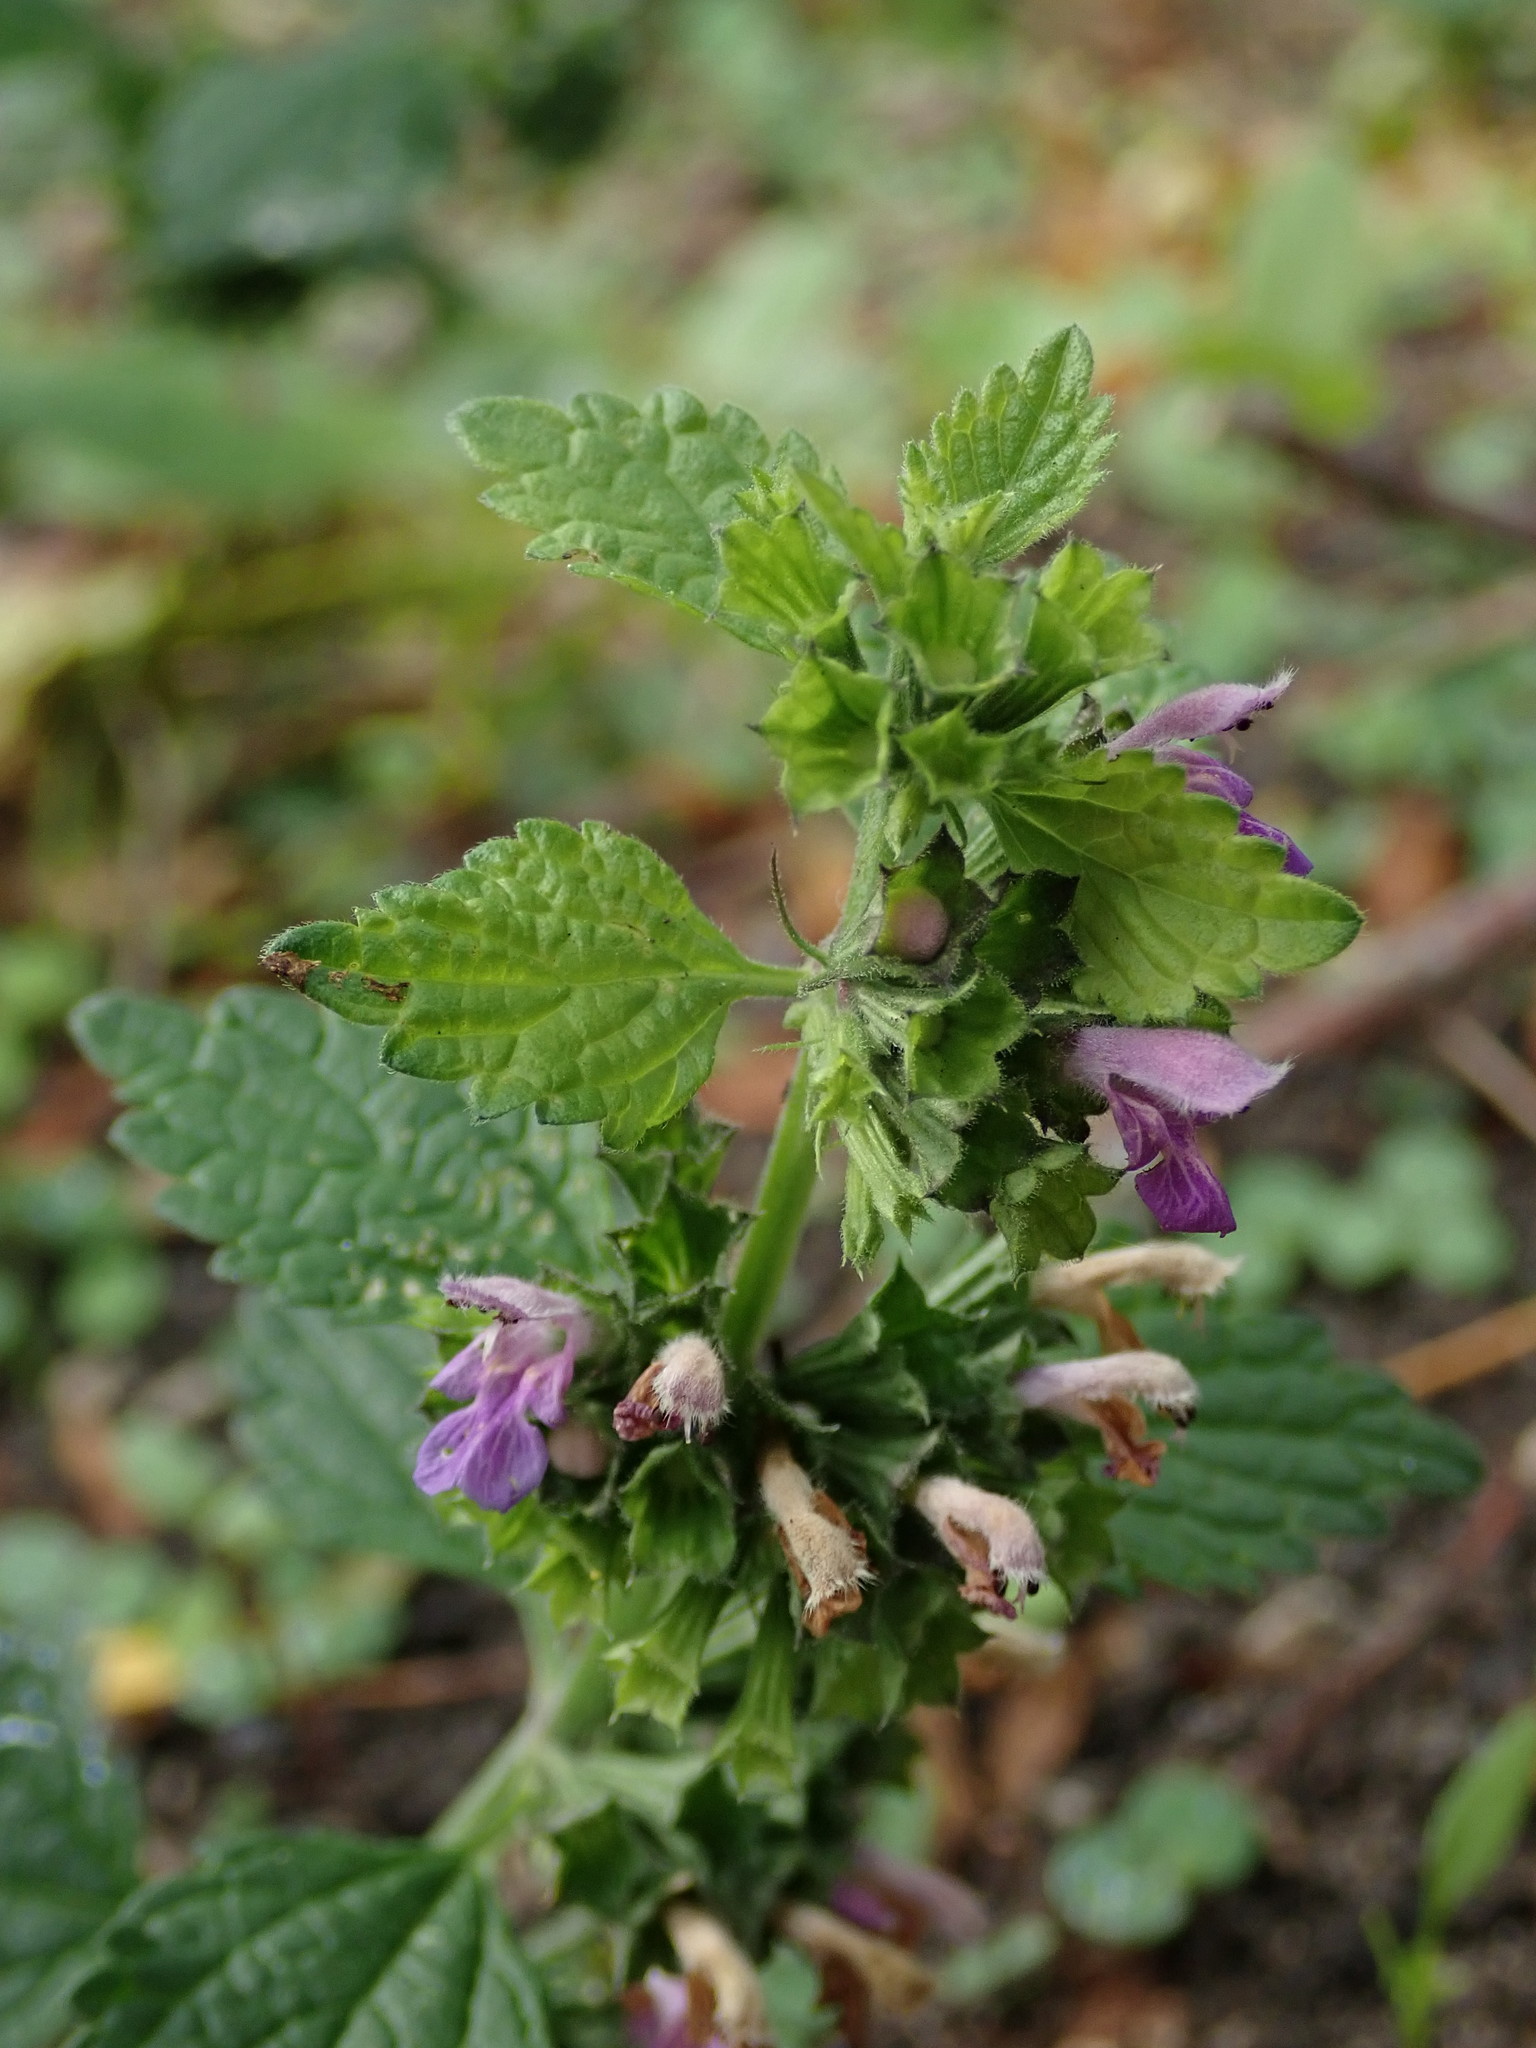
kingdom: Plantae
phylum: Tracheophyta
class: Magnoliopsida
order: Lamiales
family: Lamiaceae
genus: Ballota
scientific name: Ballota nigra
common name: Black horehound
